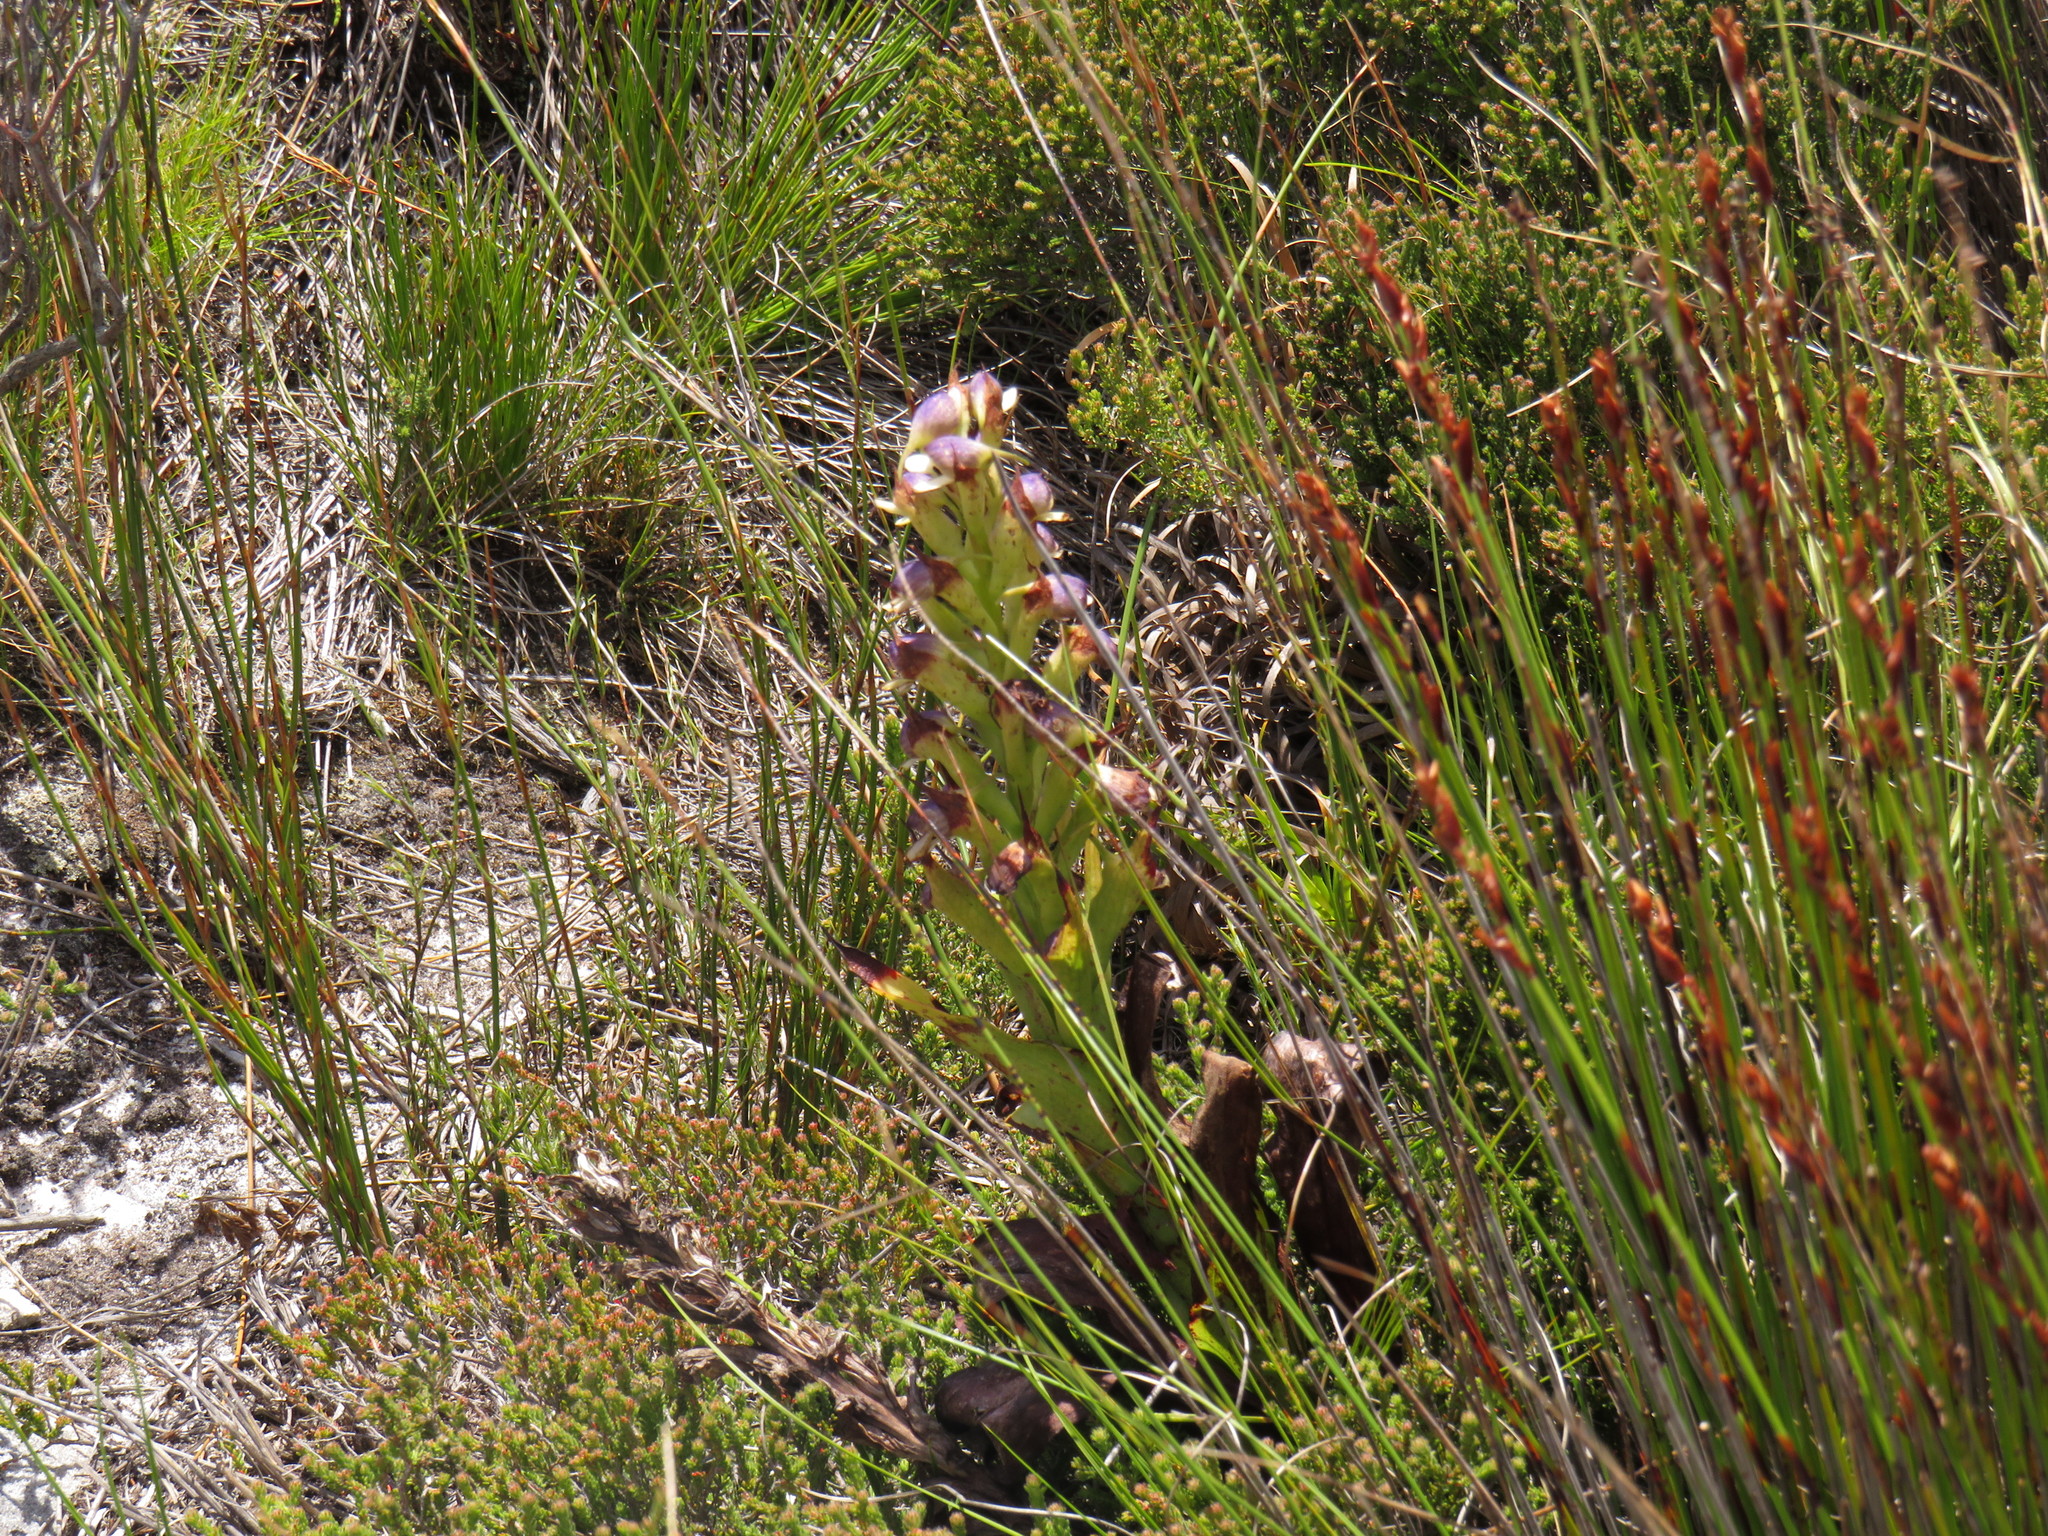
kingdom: Plantae
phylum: Tracheophyta
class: Liliopsida
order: Asparagales
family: Orchidaceae
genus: Disa
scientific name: Disa cornuta
